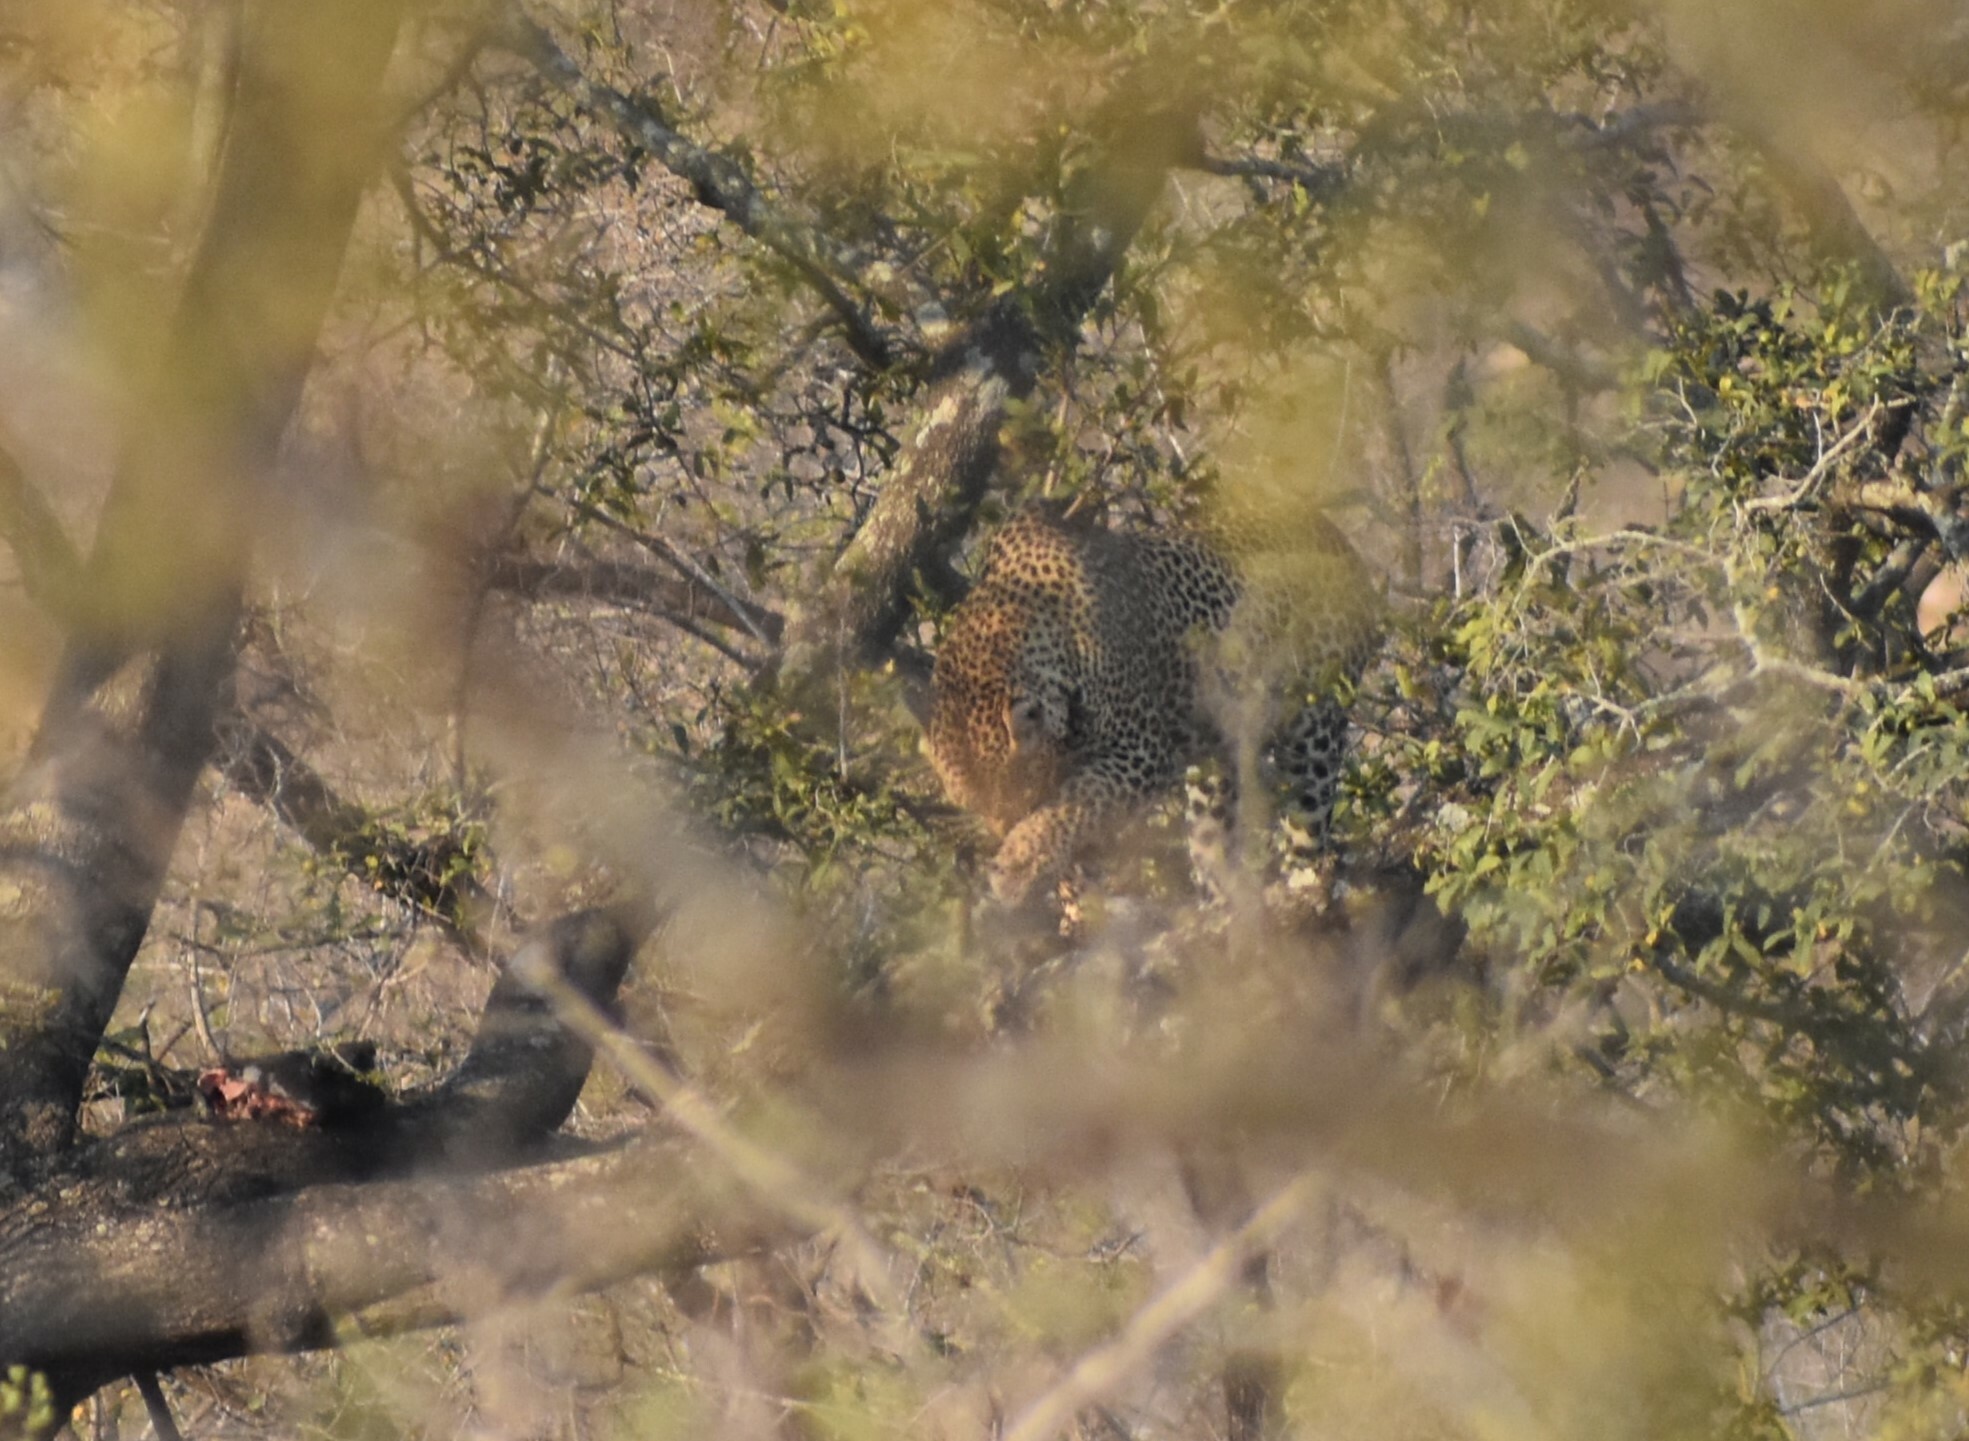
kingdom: Animalia
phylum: Chordata
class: Mammalia
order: Carnivora
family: Felidae
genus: Panthera
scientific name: Panthera pardus
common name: Leopard
